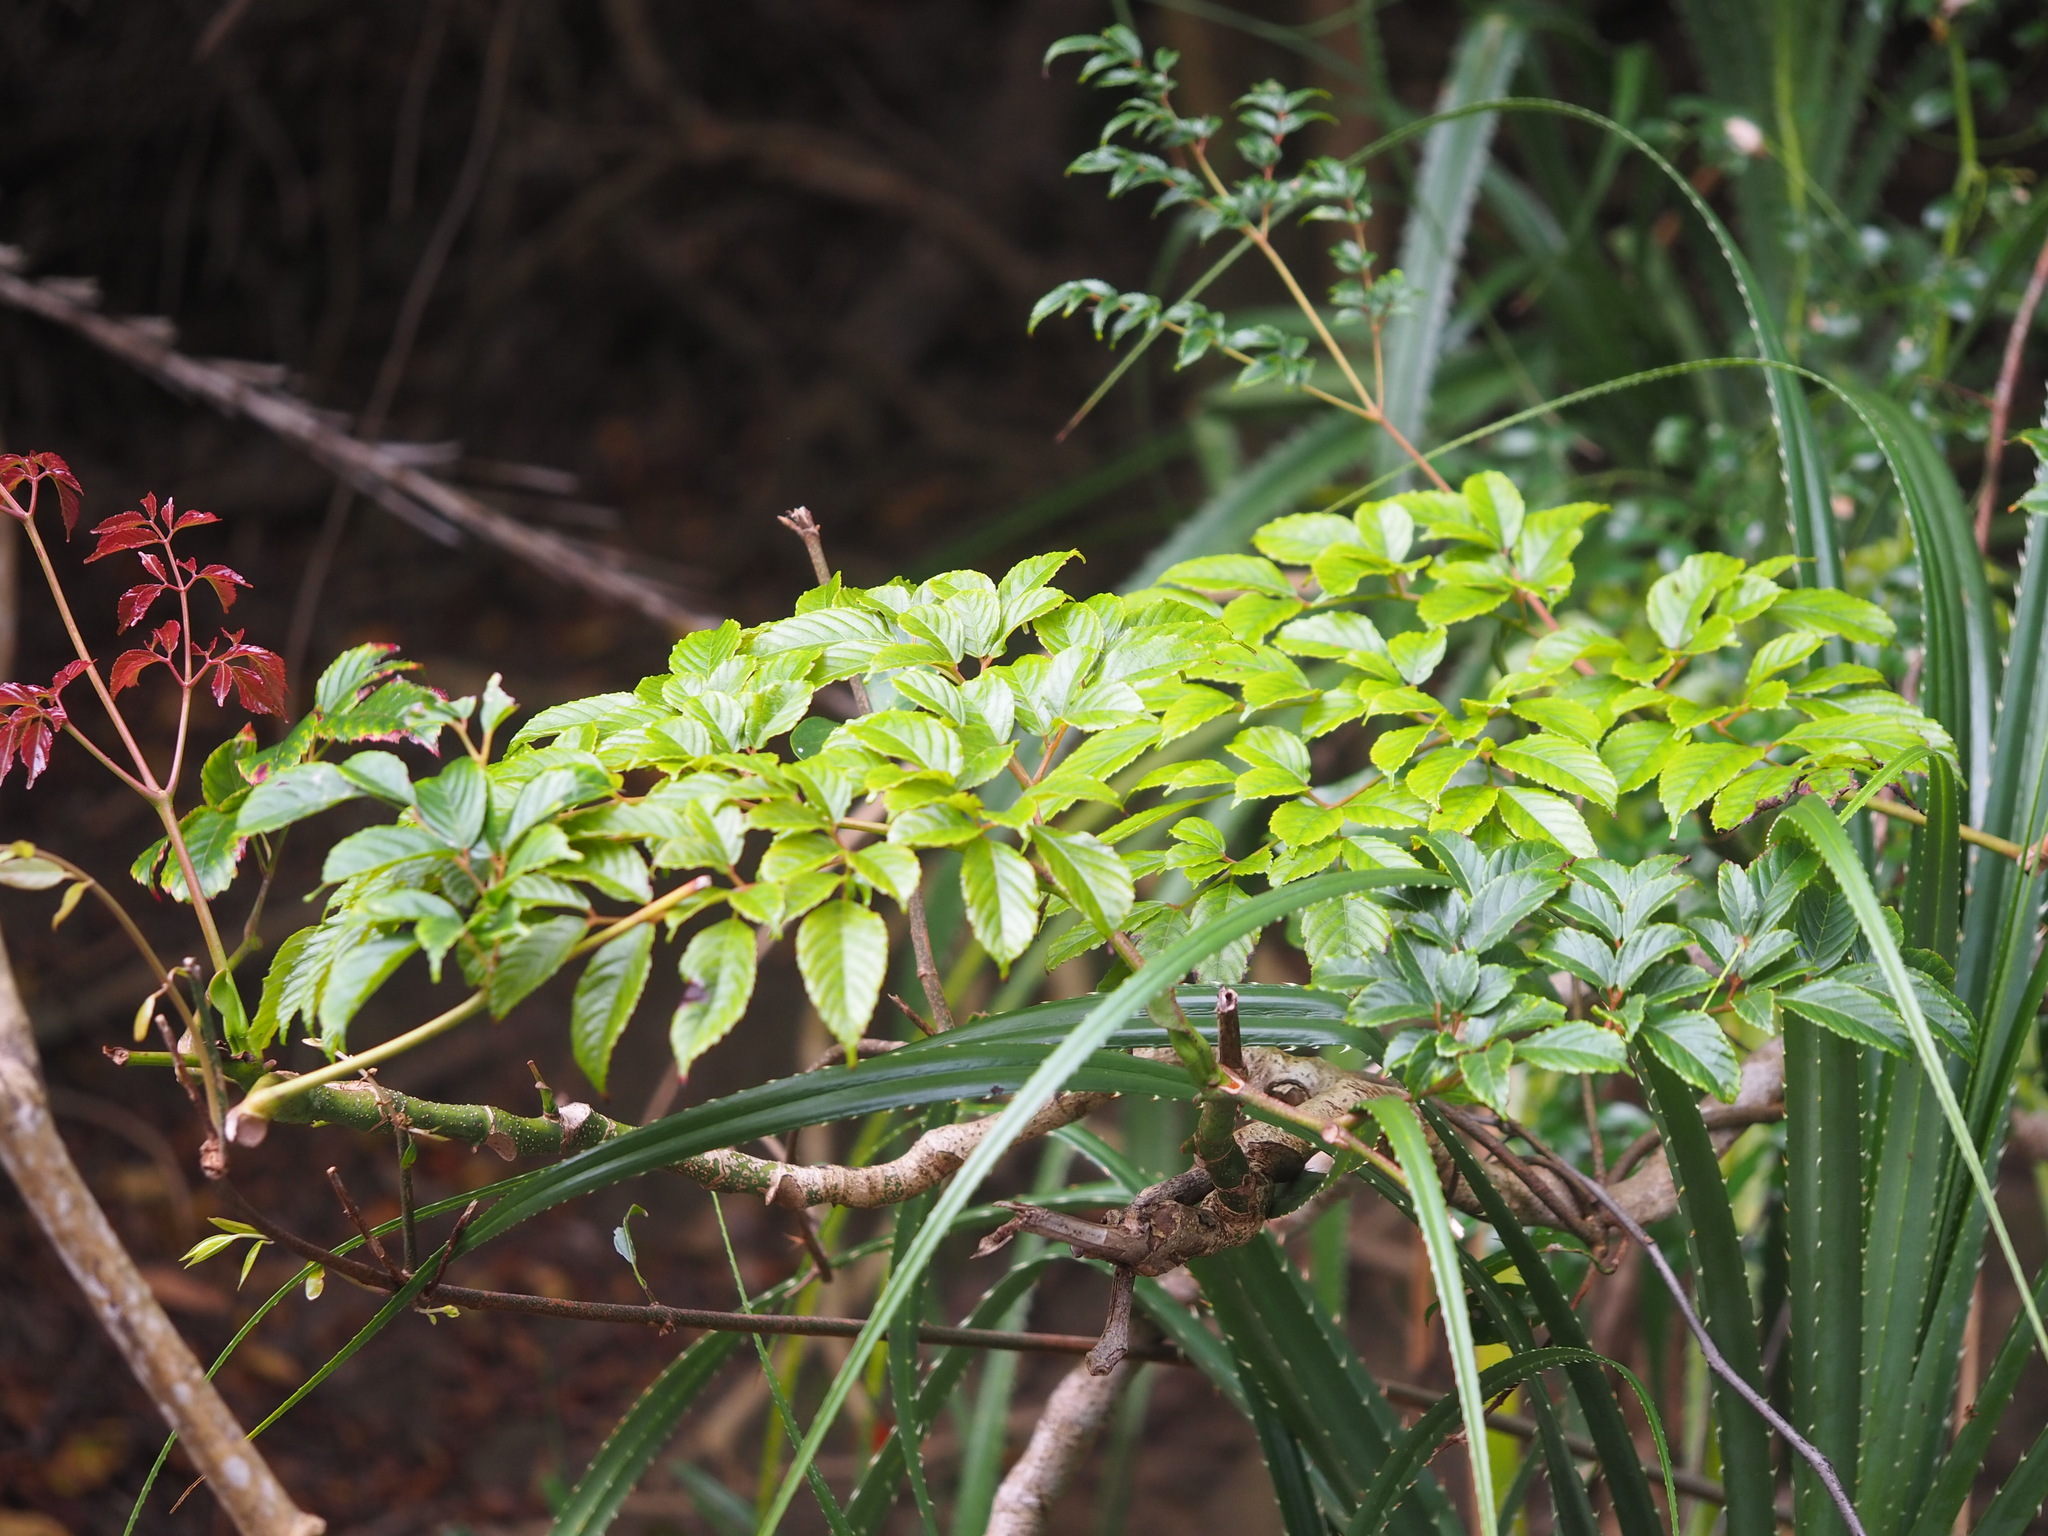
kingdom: Plantae
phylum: Tracheophyta
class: Magnoliopsida
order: Vitales
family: Vitaceae
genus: Leea
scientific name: Leea guineensis
